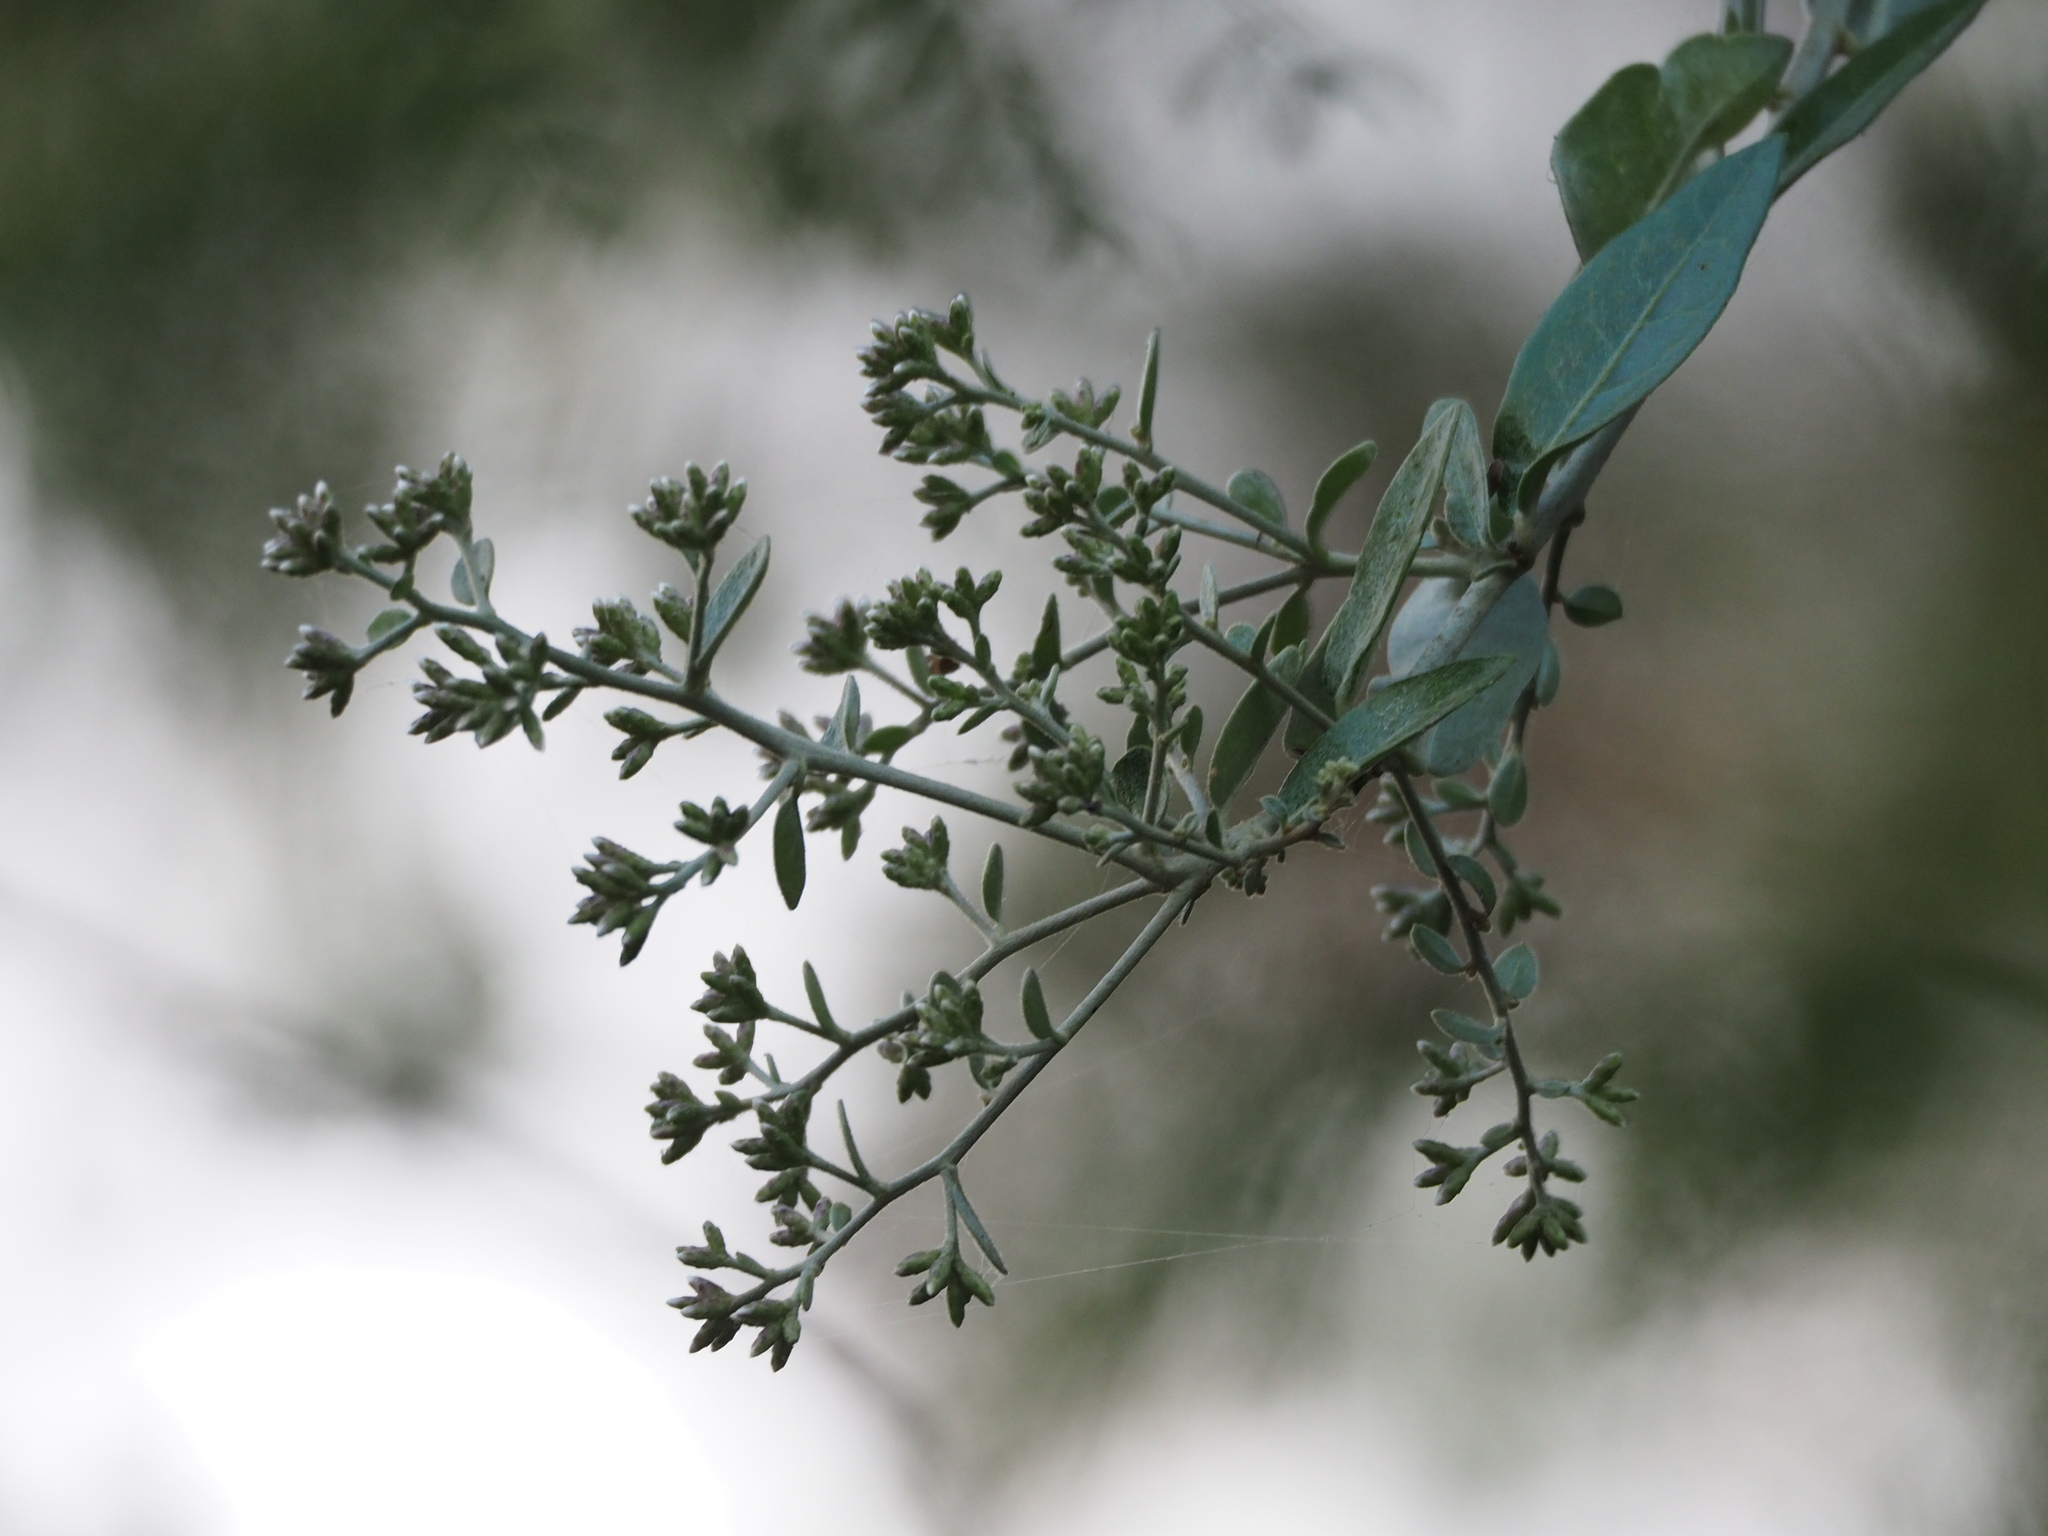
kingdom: Plantae
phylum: Tracheophyta
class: Magnoliopsida
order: Asterales
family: Asteraceae
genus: Decaneuropsis
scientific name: Decaneuropsis gratiosa
